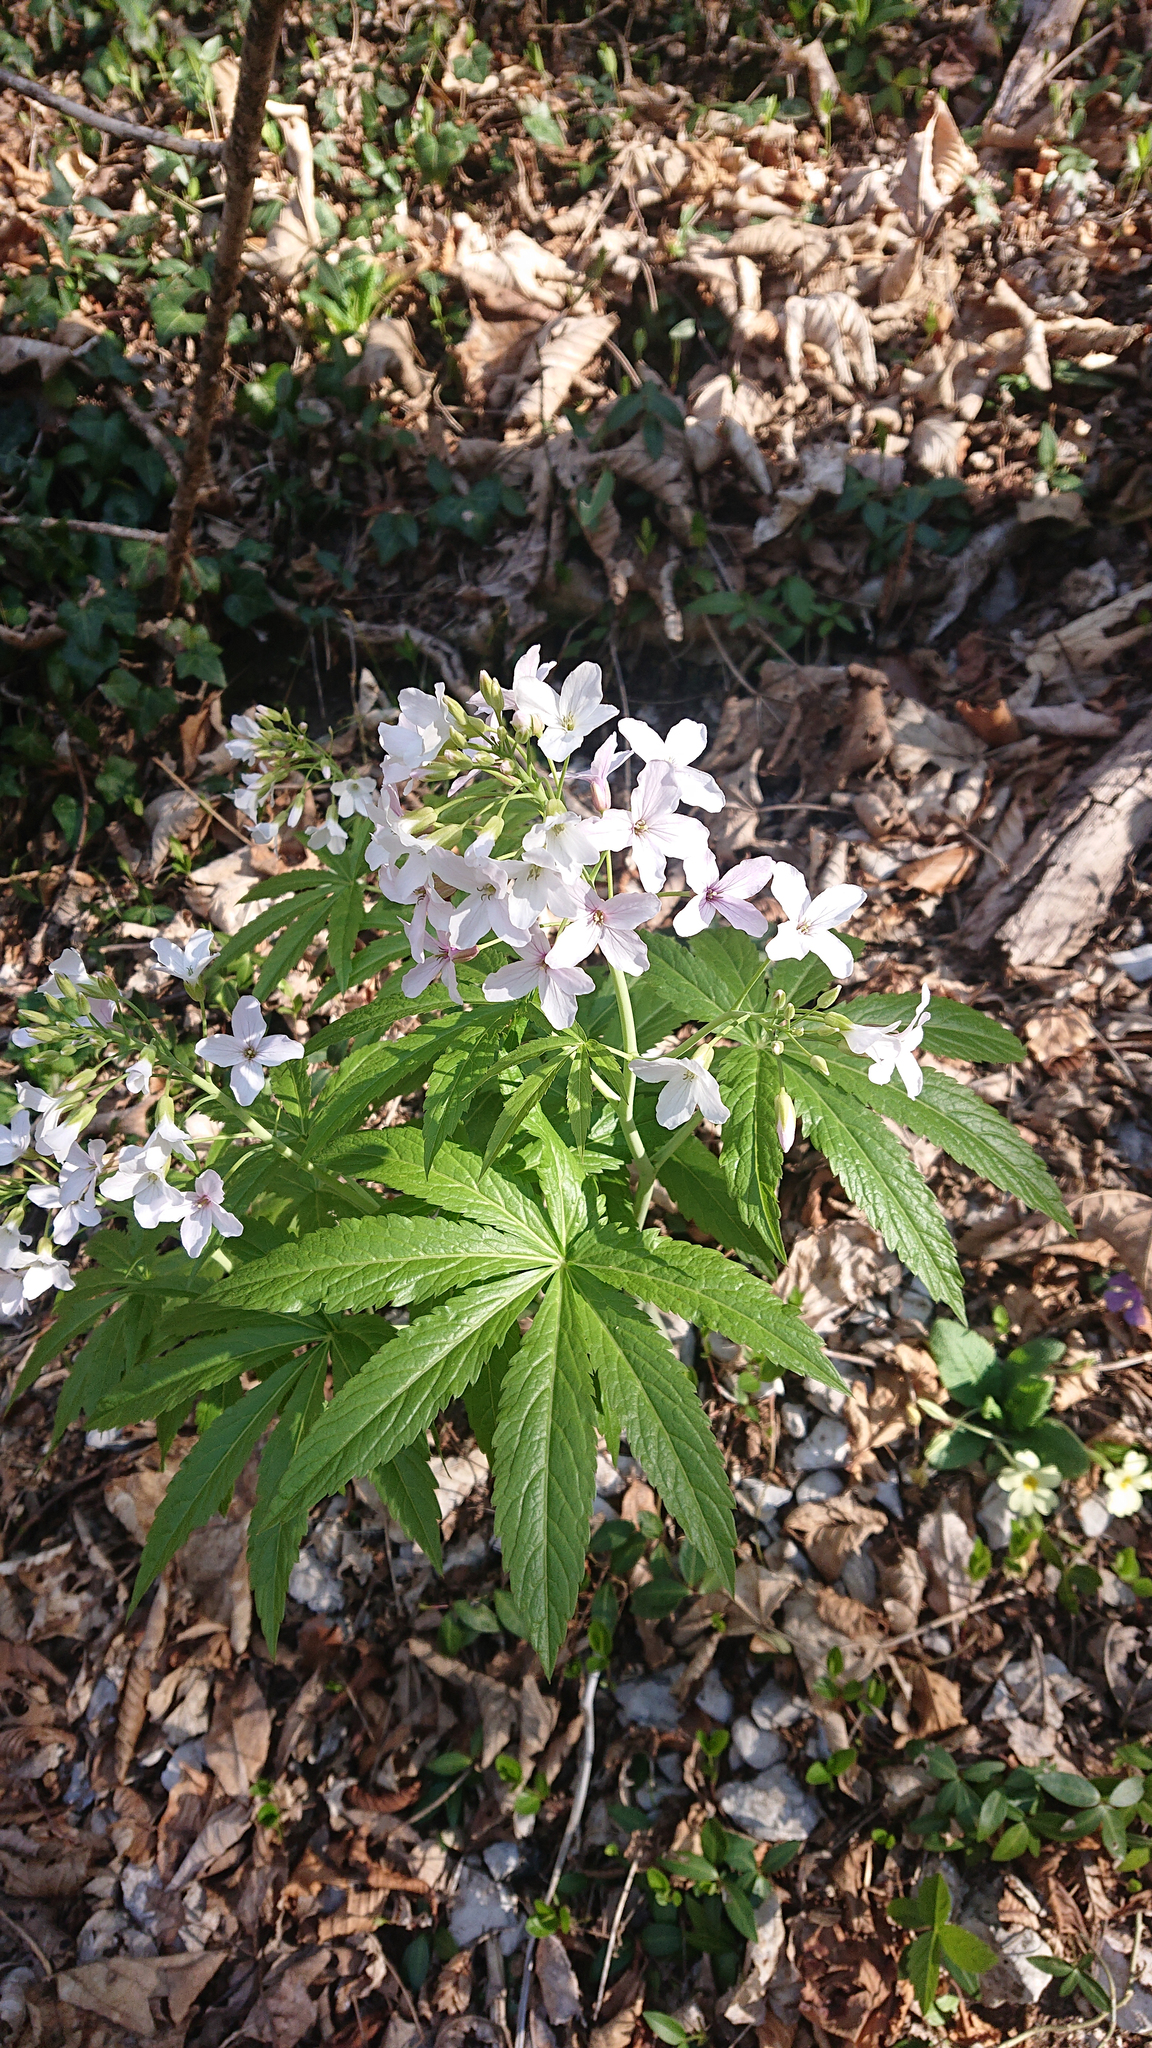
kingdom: Plantae
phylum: Tracheophyta
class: Magnoliopsida
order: Brassicales
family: Brassicaceae
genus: Cardamine
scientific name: Cardamine heptaphylla
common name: Pinnate coralroot
